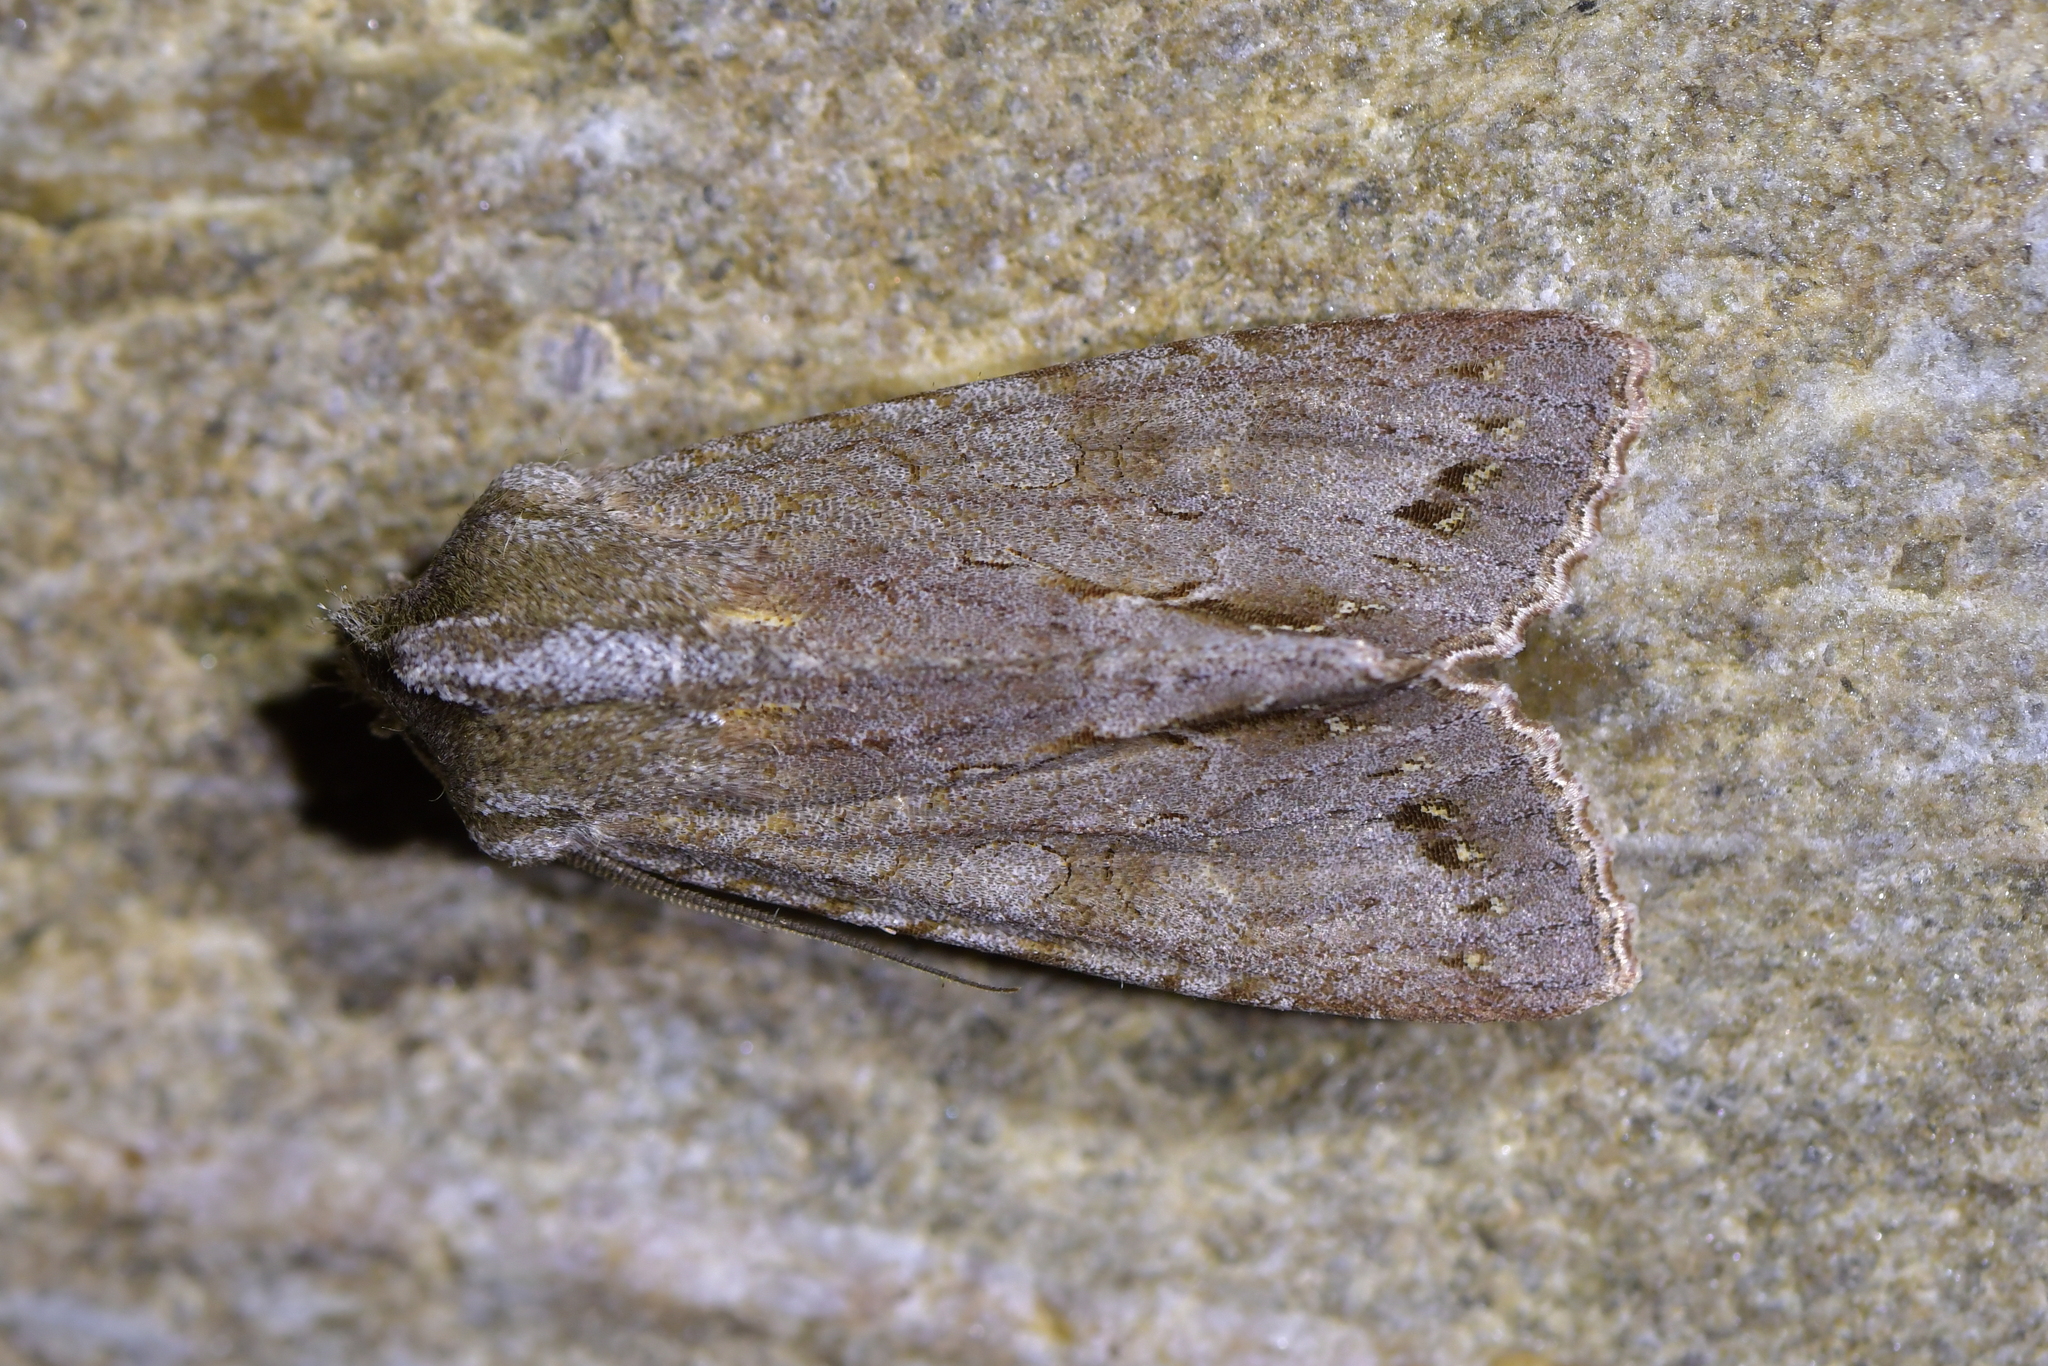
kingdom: Animalia
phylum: Arthropoda
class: Insecta
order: Lepidoptera
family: Noctuidae
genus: Ichneutica
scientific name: Ichneutica
